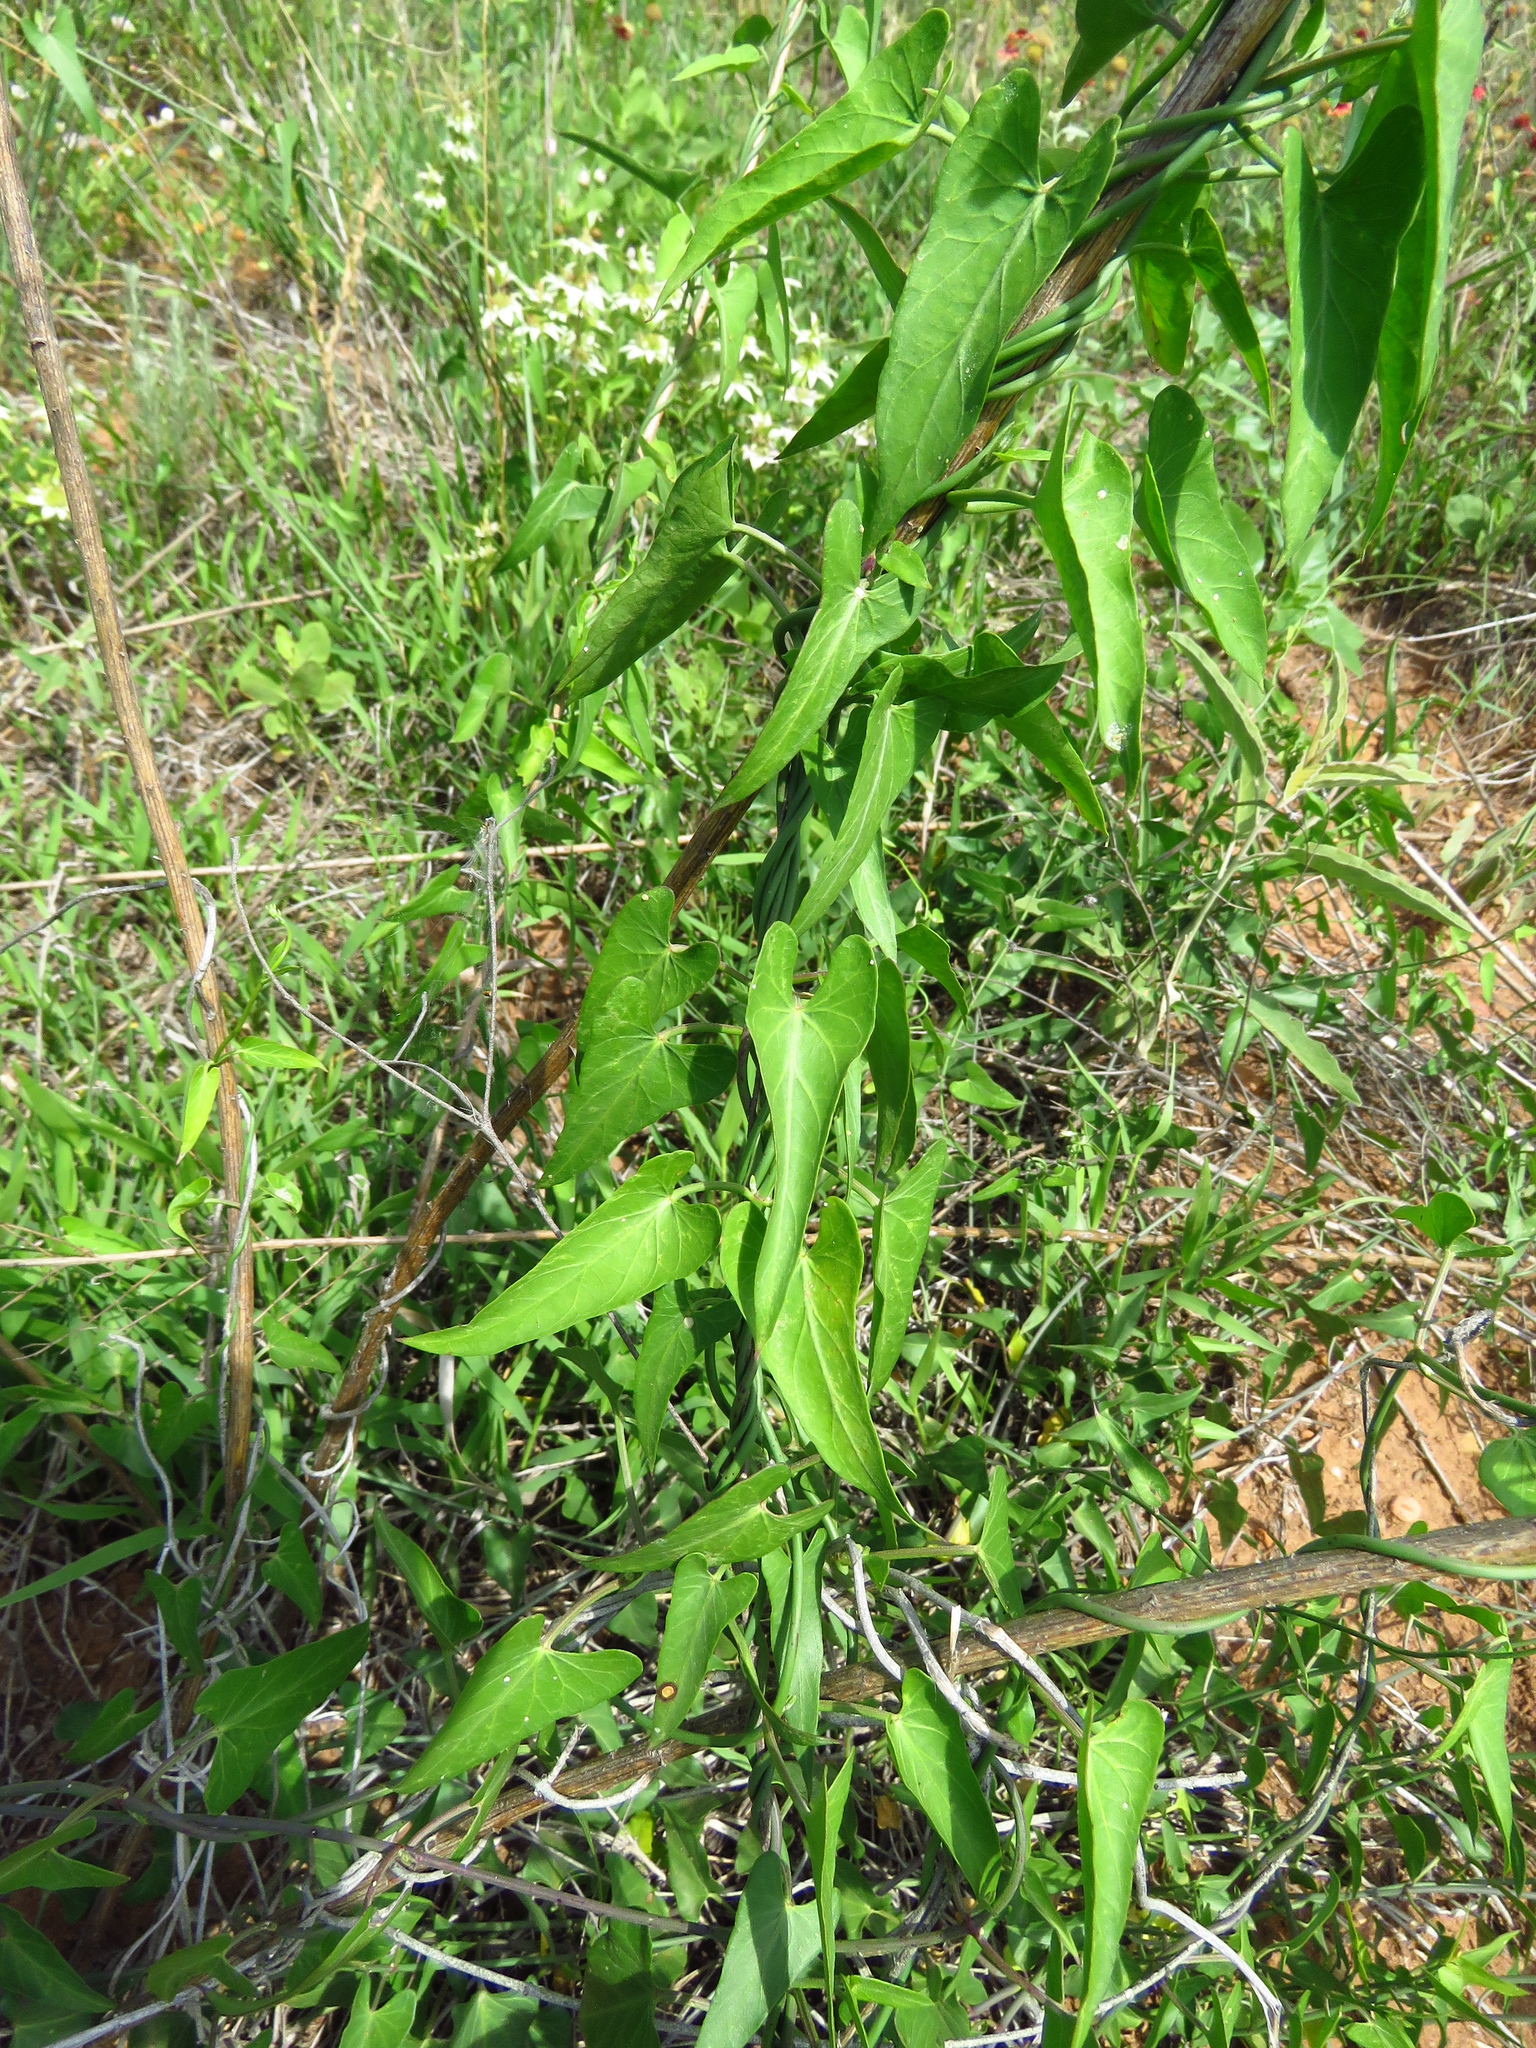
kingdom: Plantae
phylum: Tracheophyta
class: Magnoliopsida
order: Gentianales
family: Apocynaceae
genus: Funastrum
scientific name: Funastrum cynanchoides
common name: Climbing-milkweed
